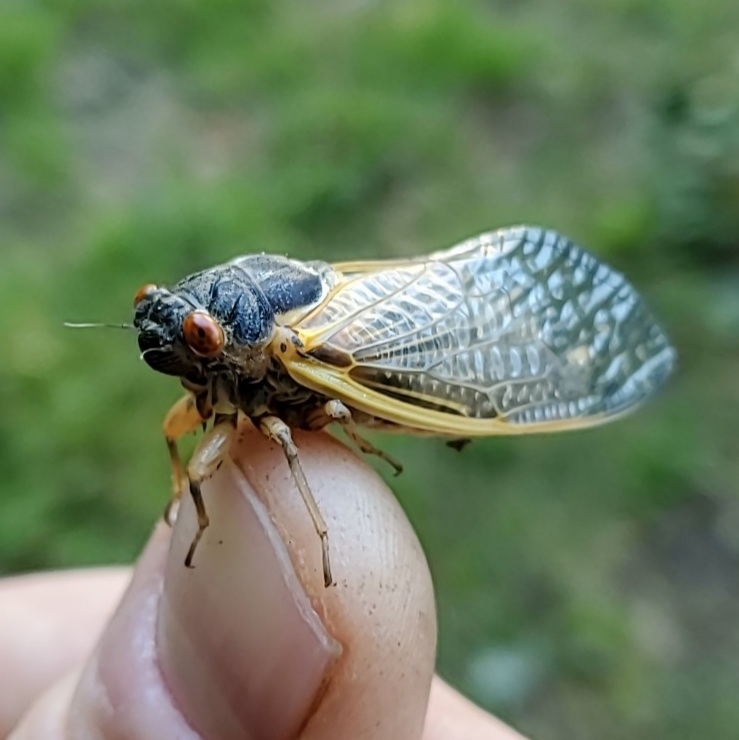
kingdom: Animalia
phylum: Arthropoda
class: Insecta
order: Hemiptera
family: Cicadidae
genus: Magicicada
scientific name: Magicicada septendecim
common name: Periodical cicada
